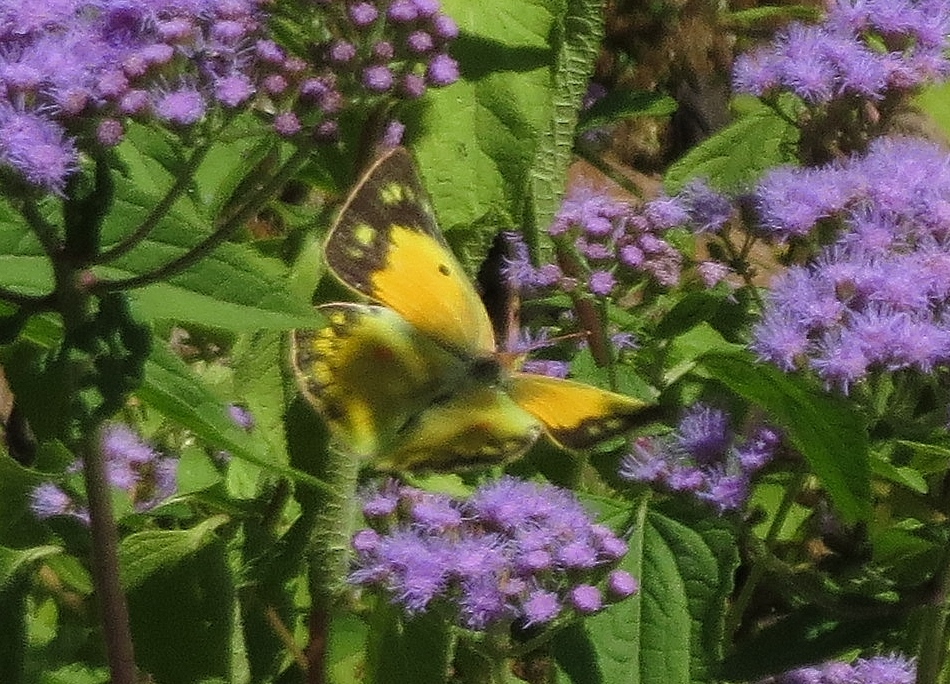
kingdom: Animalia
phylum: Arthropoda
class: Insecta
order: Lepidoptera
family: Pieridae
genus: Colias
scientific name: Colias eurytheme
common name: Alfalfa butterfly
